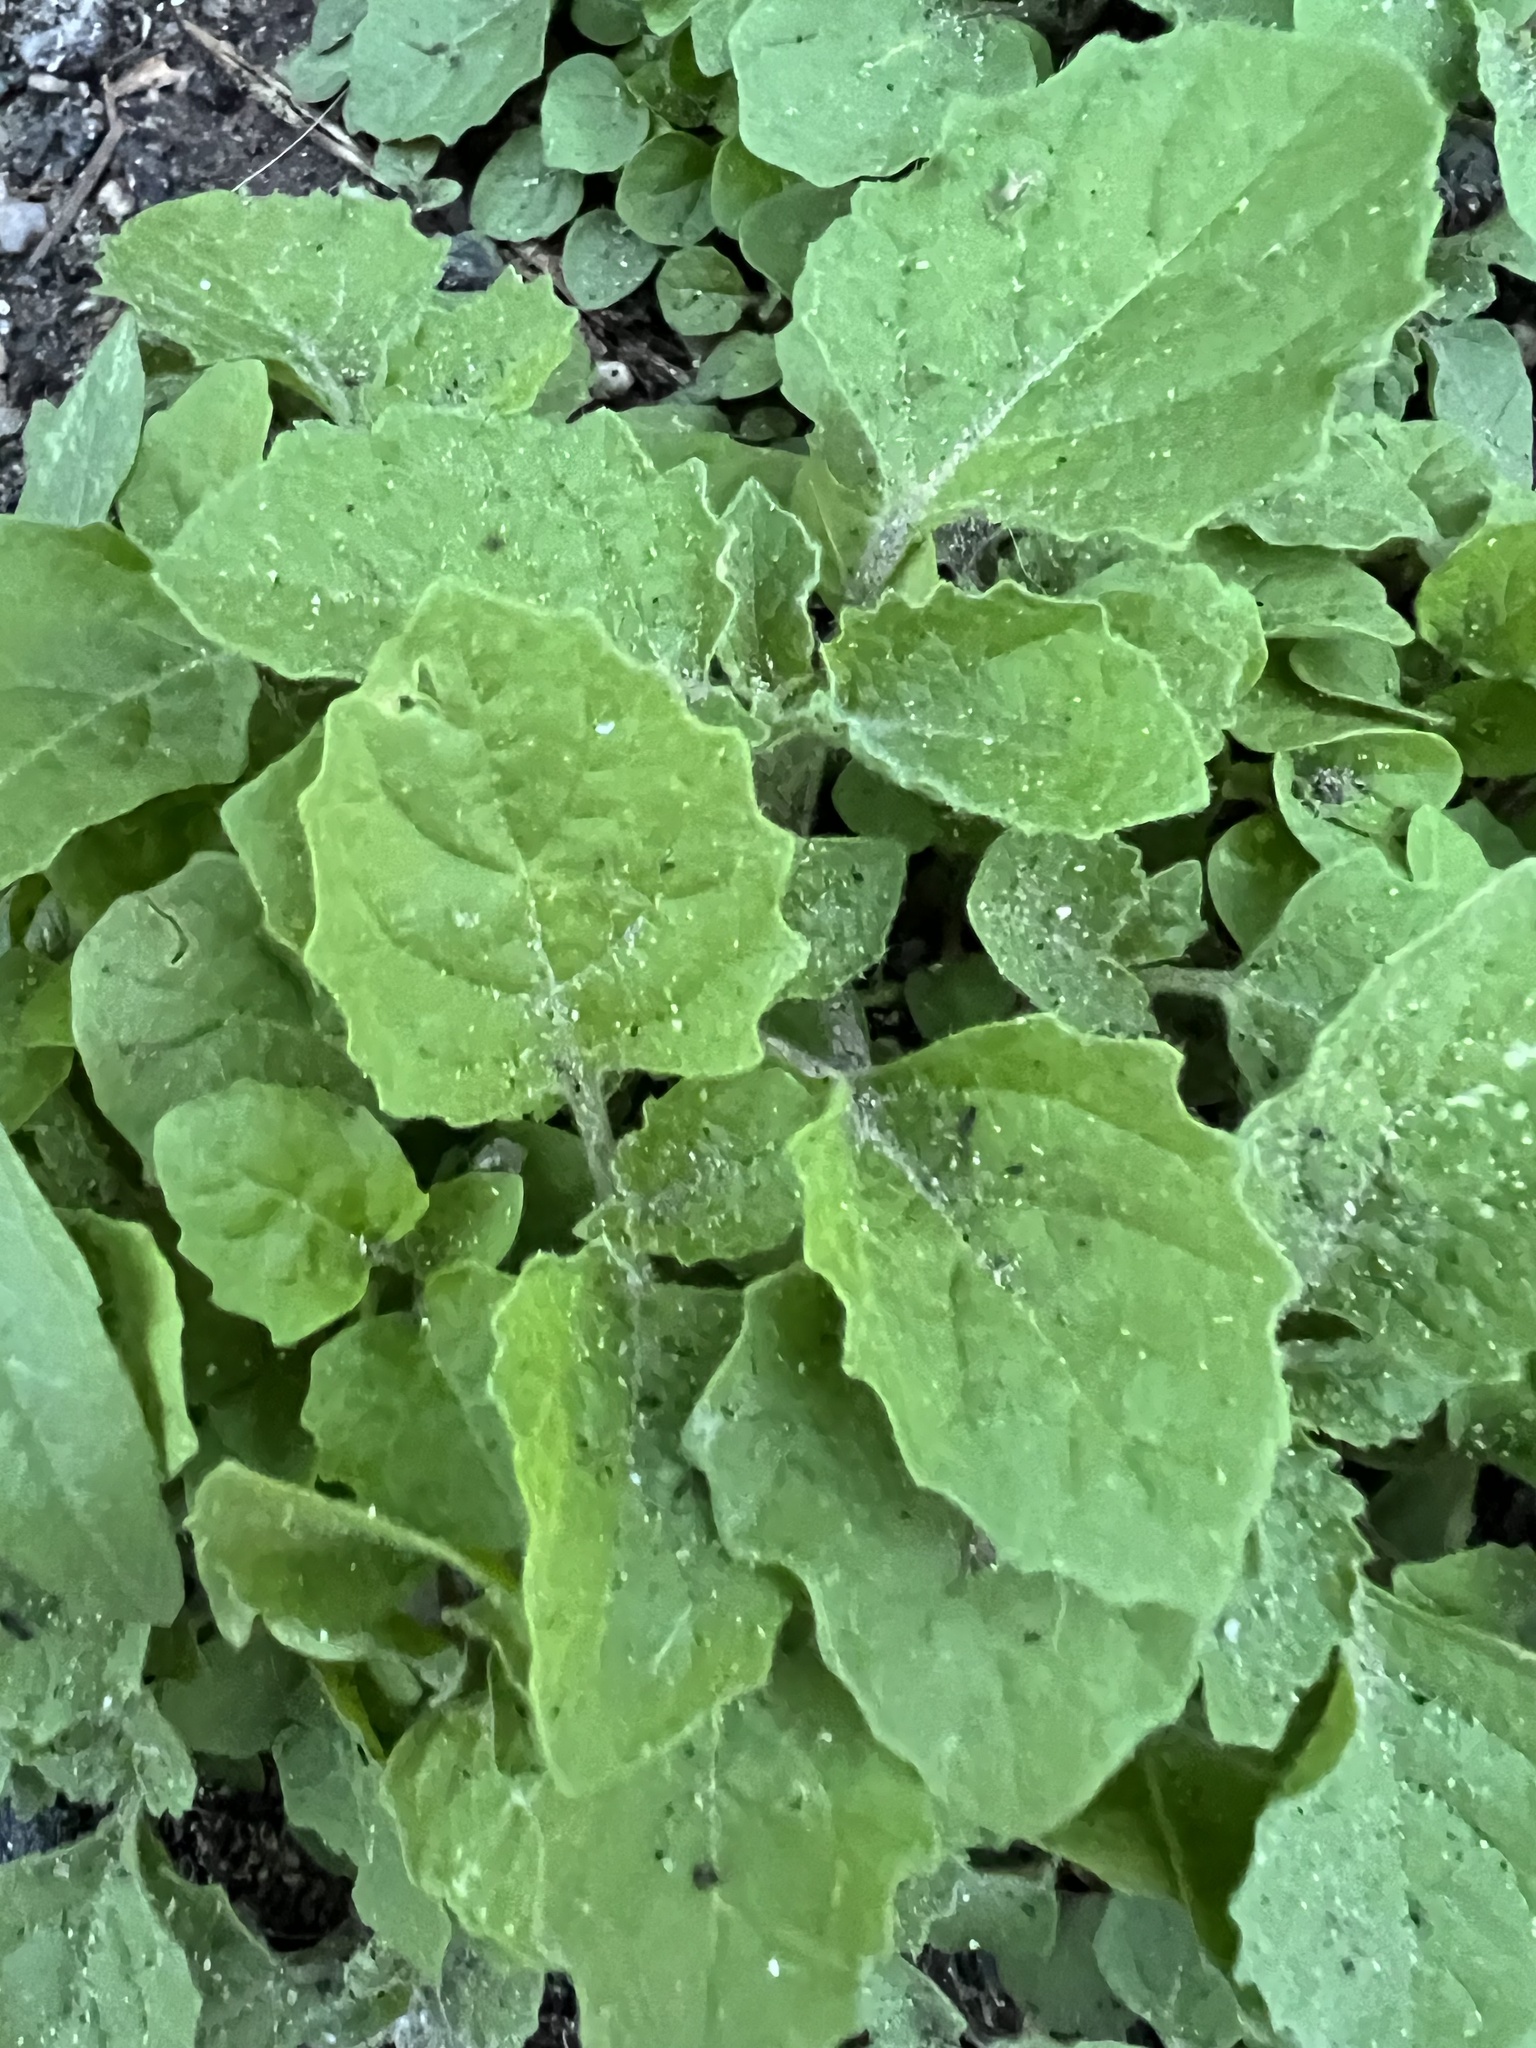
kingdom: Plantae
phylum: Tracheophyta
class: Magnoliopsida
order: Solanales
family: Solanaceae
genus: Solanum
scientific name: Solanum sarrachoides
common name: Leafy-fruited nightshade
